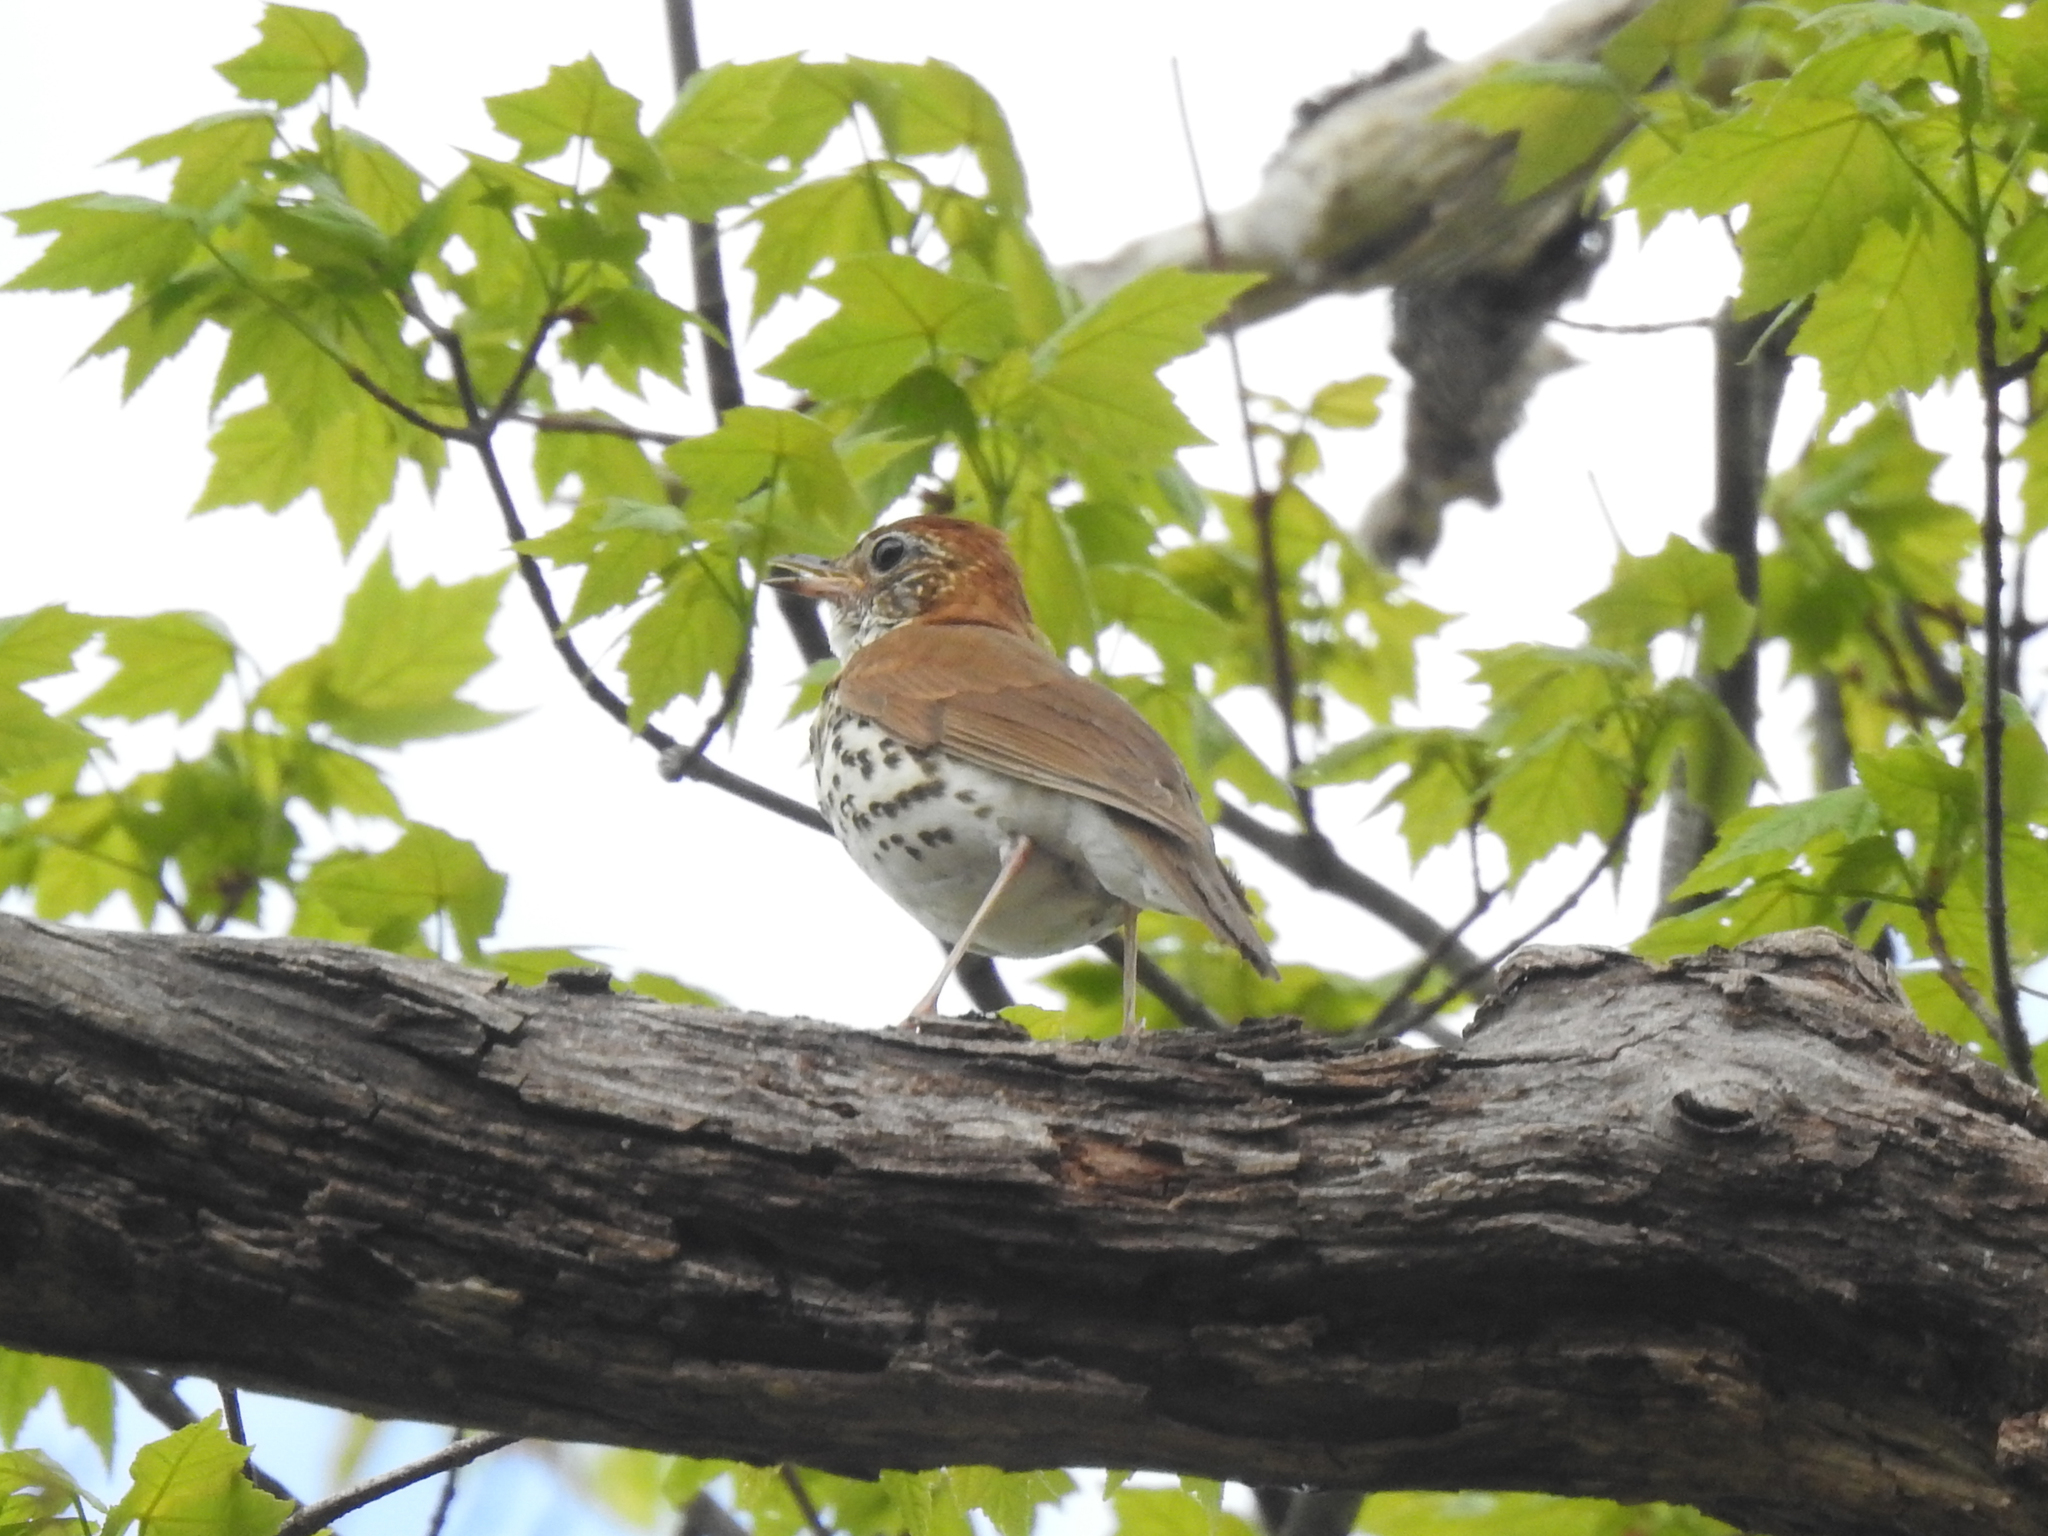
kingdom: Animalia
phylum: Chordata
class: Aves
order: Passeriformes
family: Turdidae
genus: Hylocichla
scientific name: Hylocichla mustelina
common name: Wood thrush
